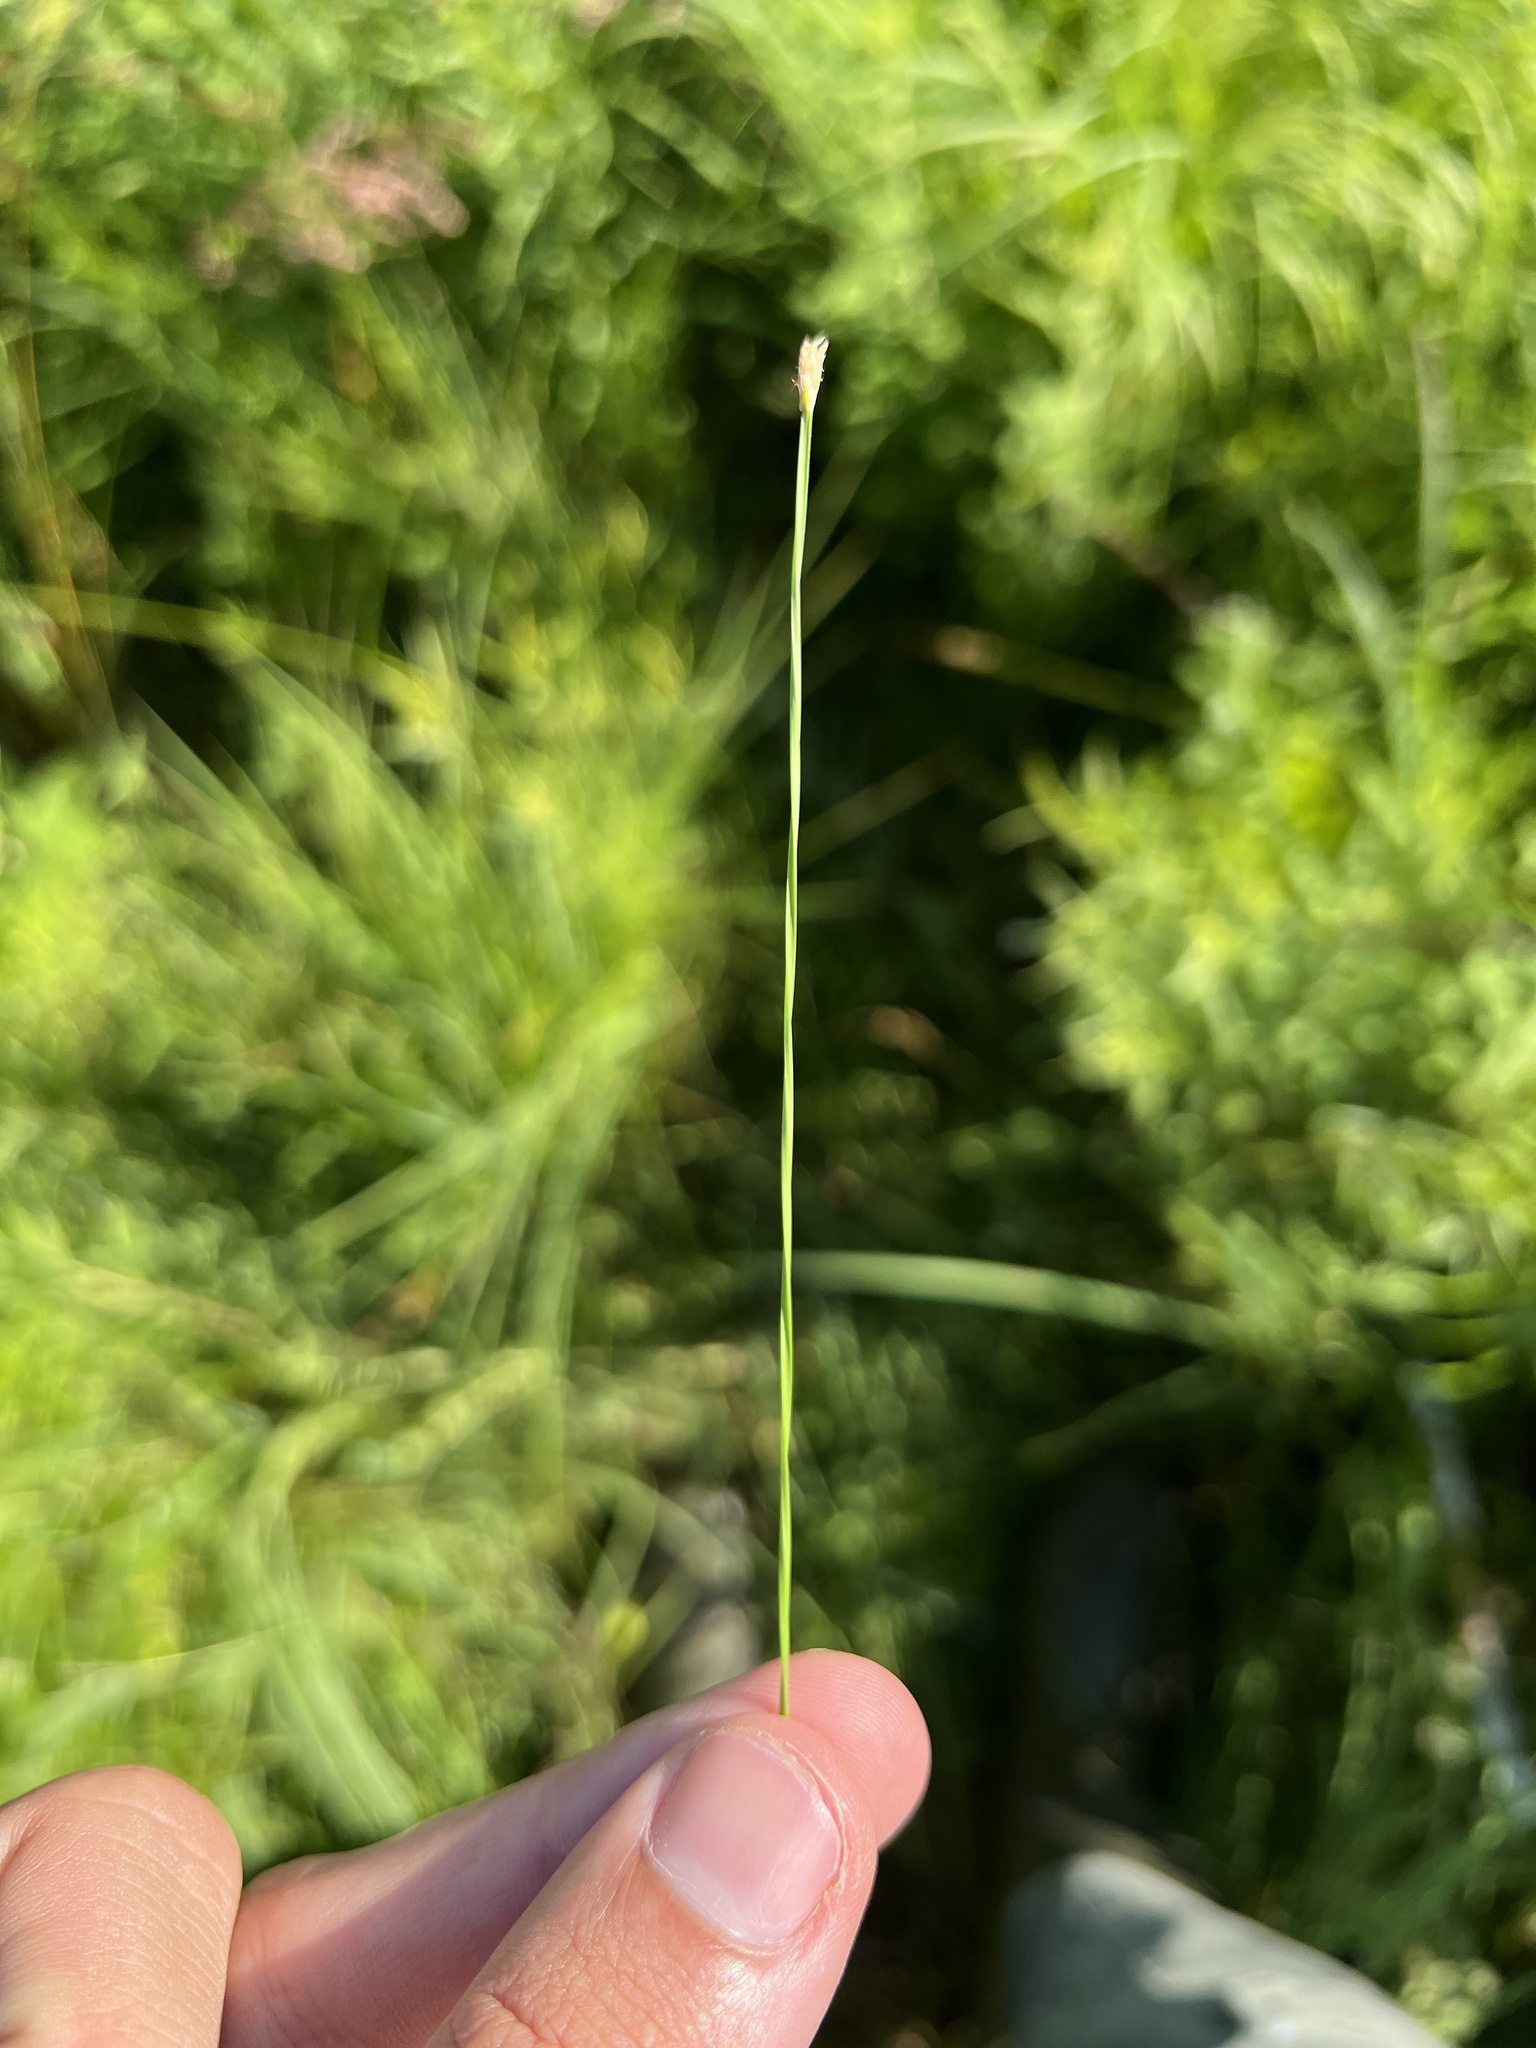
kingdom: Plantae
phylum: Tracheophyta
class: Liliopsida
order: Poales
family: Cyperaceae
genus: Eleocharis
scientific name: Eleocharis wolfii
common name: Wolf's spikerush
